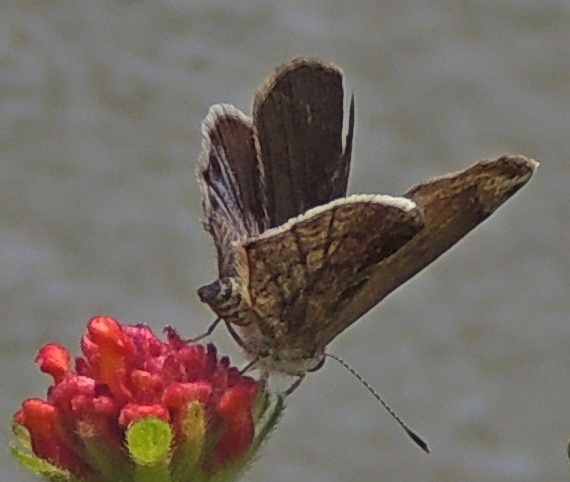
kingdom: Animalia
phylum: Arthropoda
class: Insecta
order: Lepidoptera
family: Lycaenidae
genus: Strymon
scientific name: Strymon bazochii
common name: Lantana scrub-hairstreak
